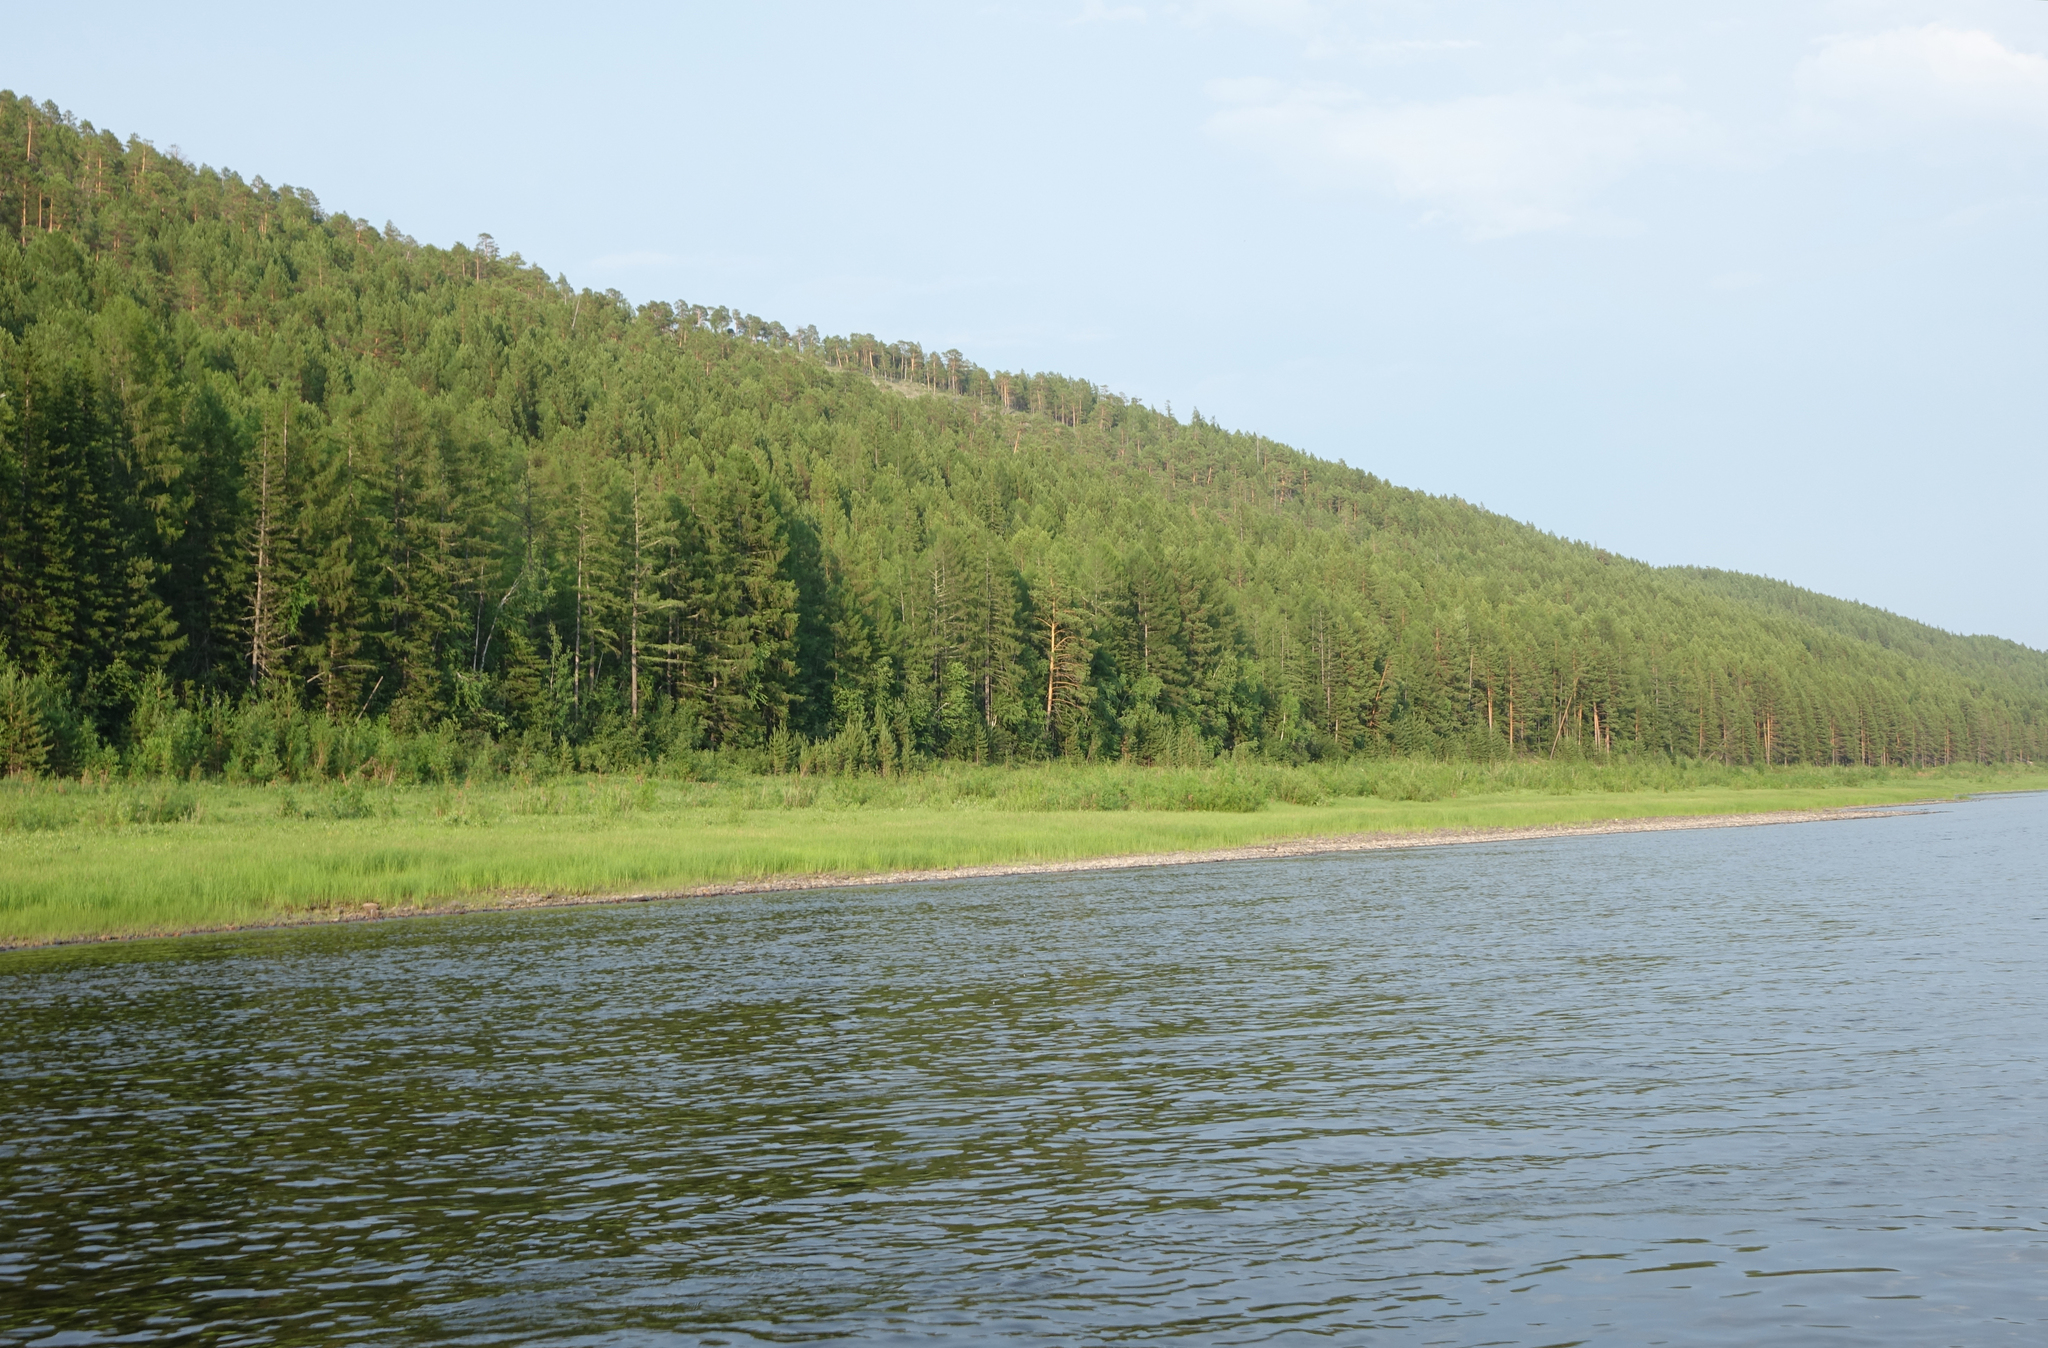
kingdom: Plantae
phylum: Tracheophyta
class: Pinopsida
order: Pinales
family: Pinaceae
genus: Pinus
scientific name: Pinus sylvestris
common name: Scots pine
